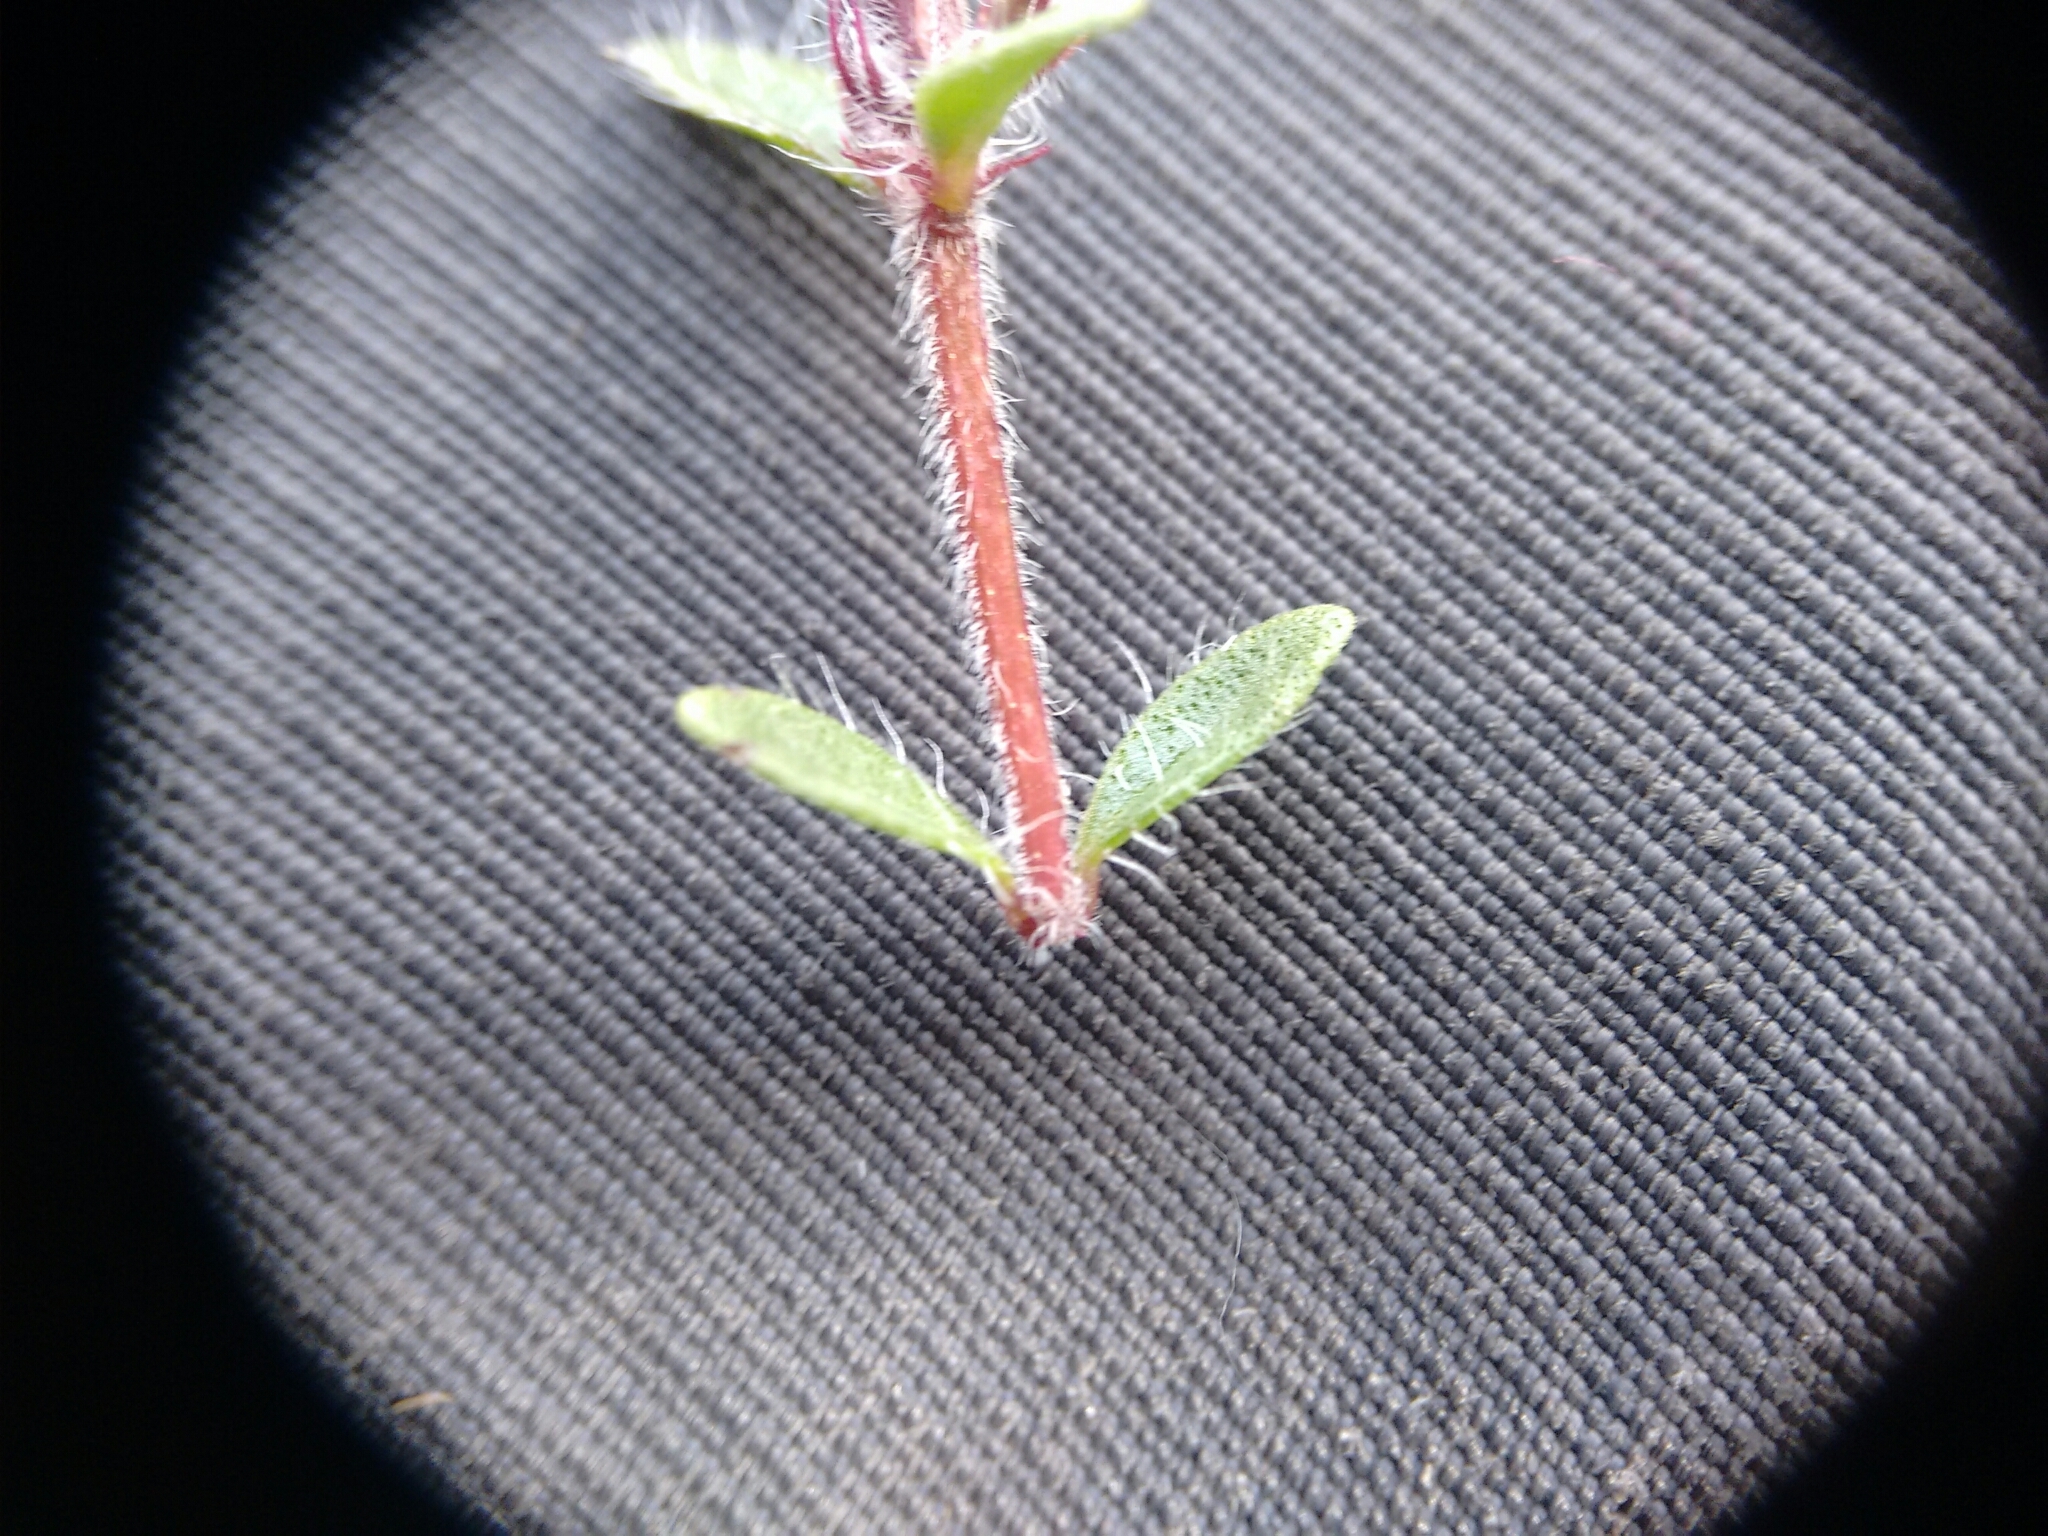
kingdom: Plantae
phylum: Tracheophyta
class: Magnoliopsida
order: Lamiales
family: Lamiaceae
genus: Thymus
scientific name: Thymus praecox
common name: Wild thyme
